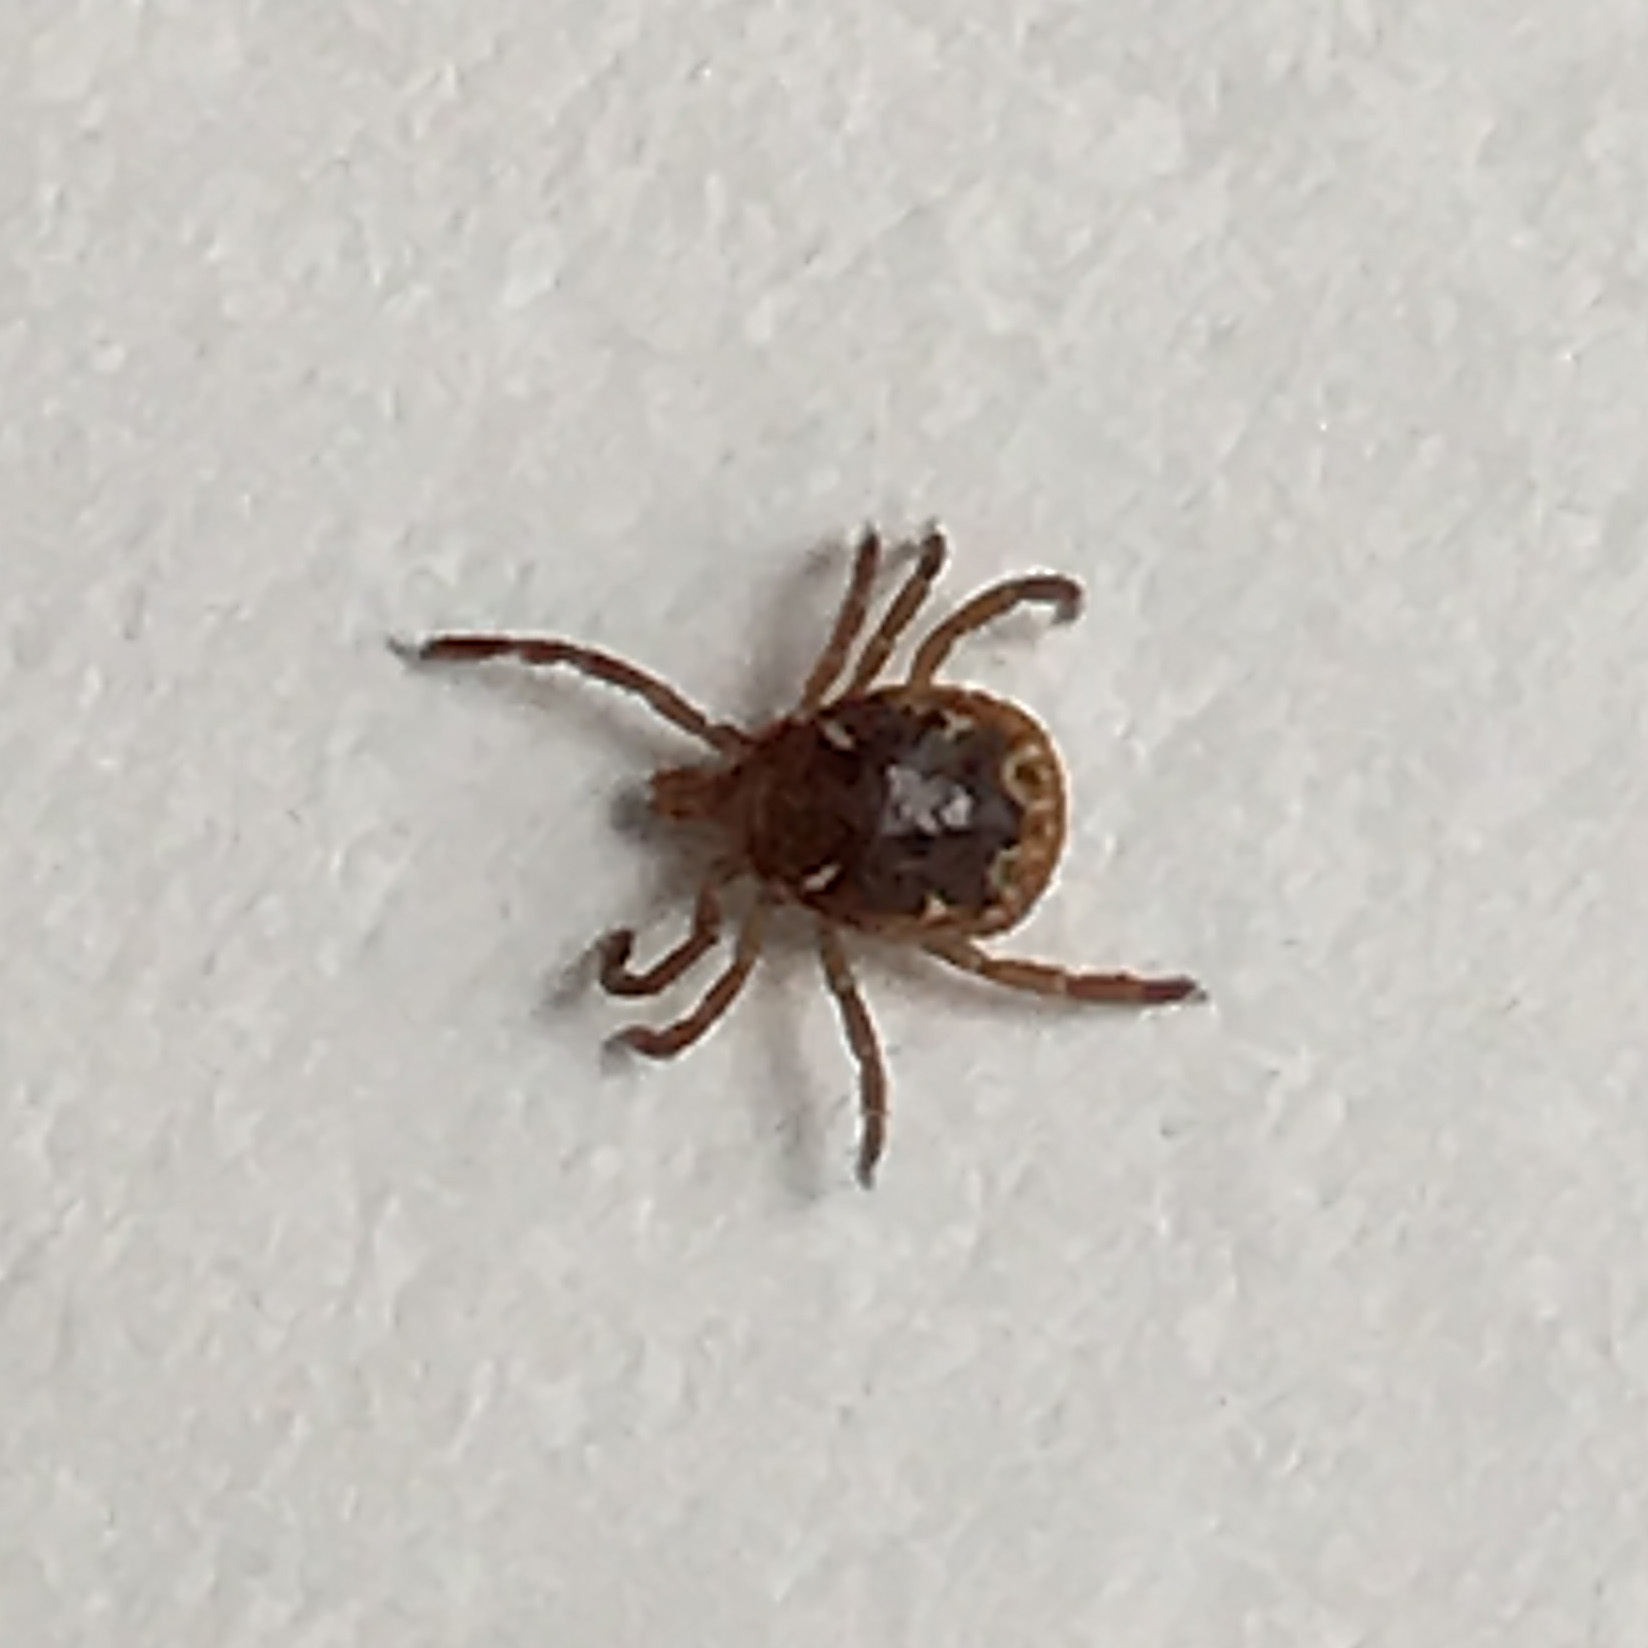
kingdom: Animalia
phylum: Arthropoda
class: Arachnida
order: Ixodida
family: Ixodidae
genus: Amblyomma
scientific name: Amblyomma americanum
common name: Lone star tick
